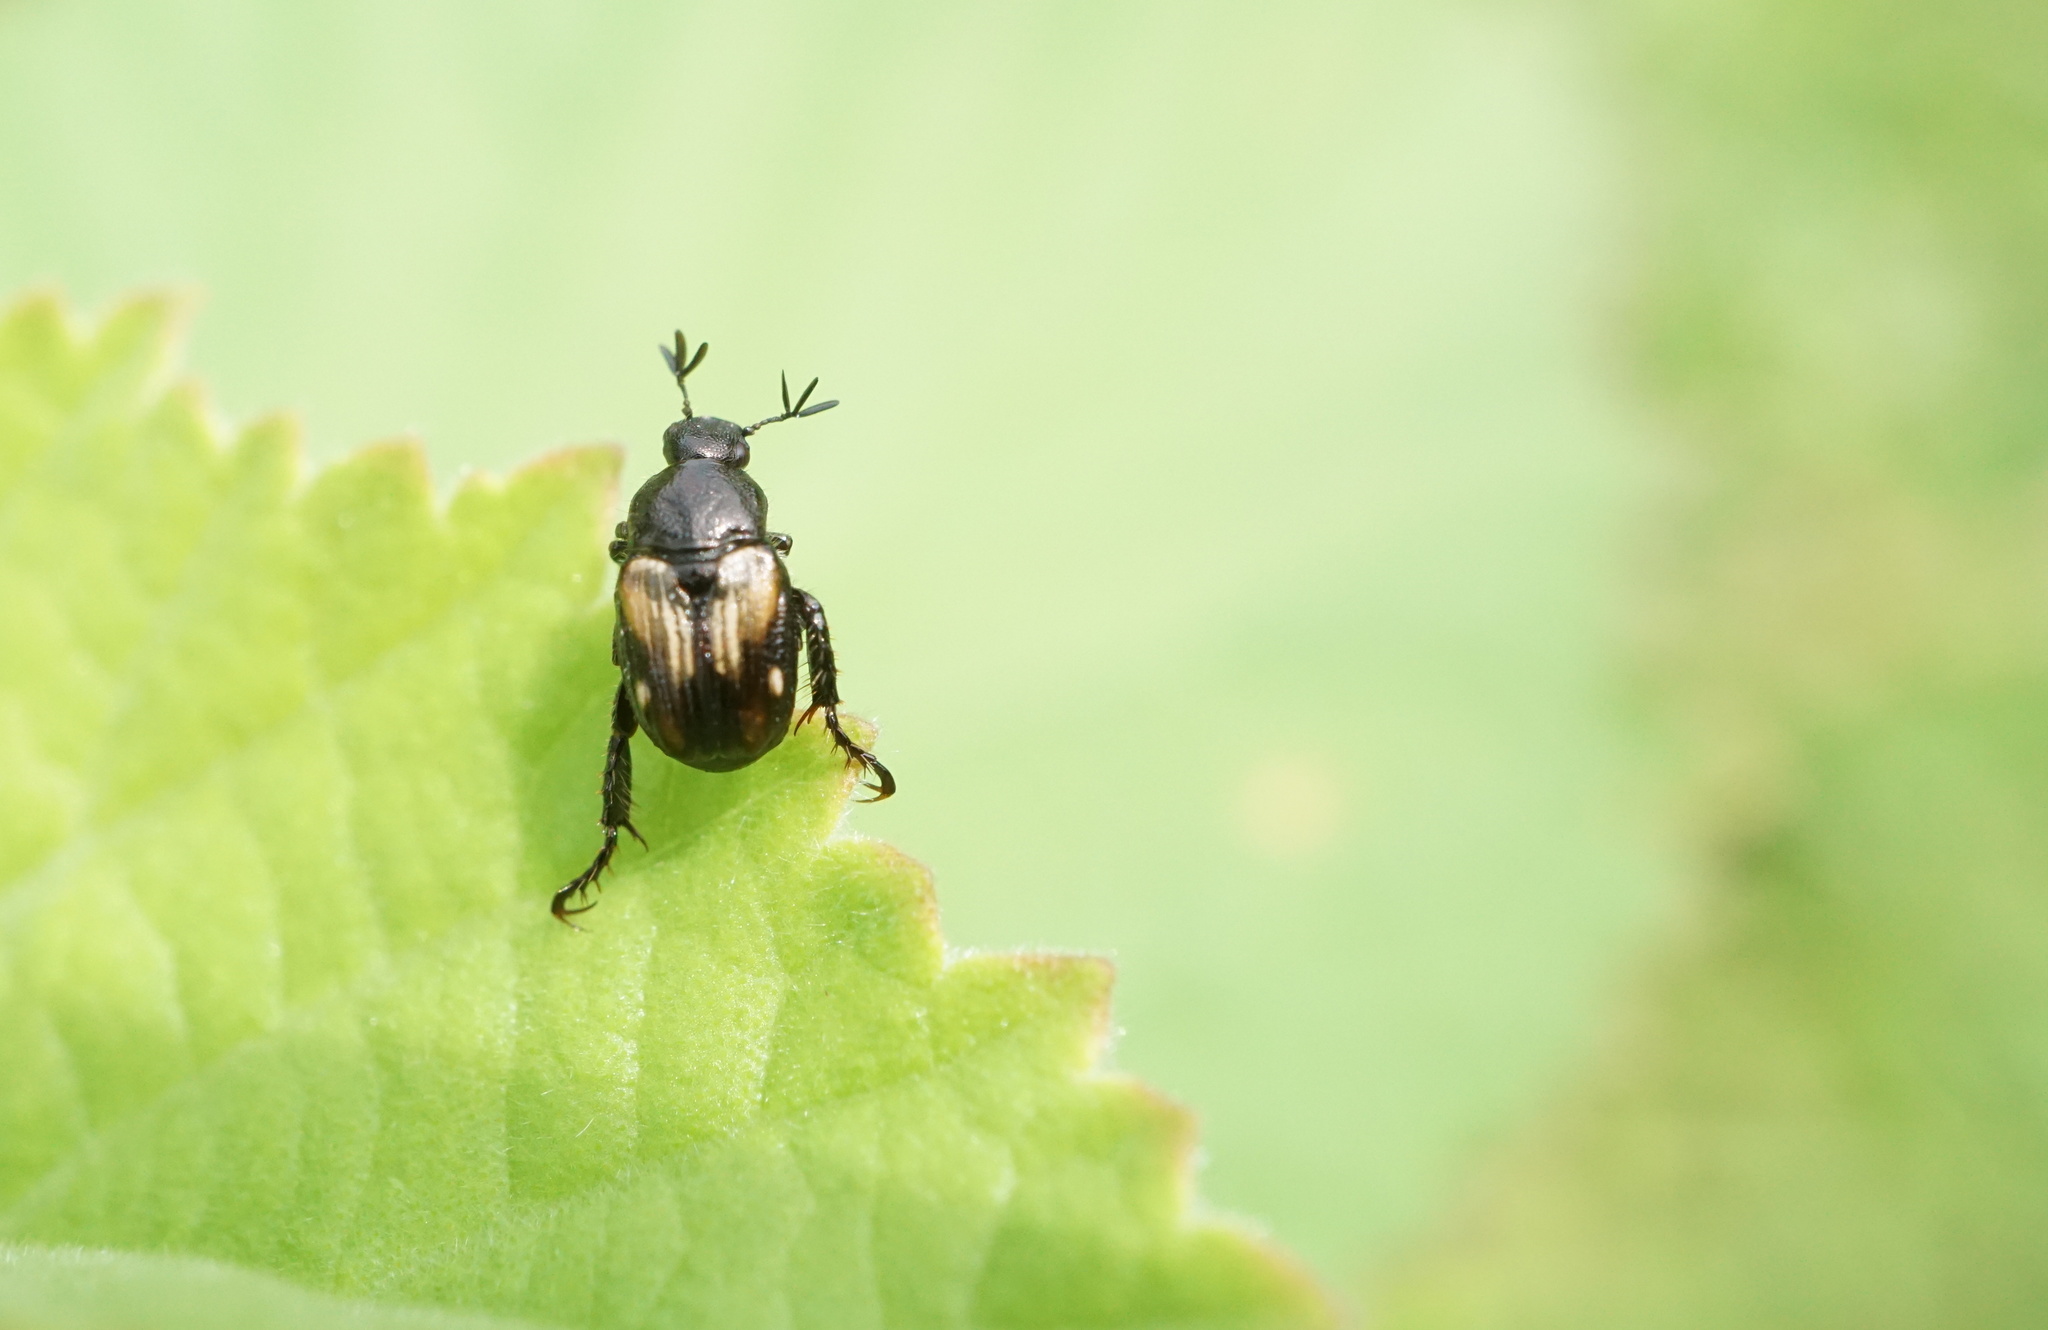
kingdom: Animalia
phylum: Arthropoda
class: Insecta
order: Coleoptera
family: Scarabaeidae
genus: Strigoderma
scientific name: Strigoderma pygmaea
